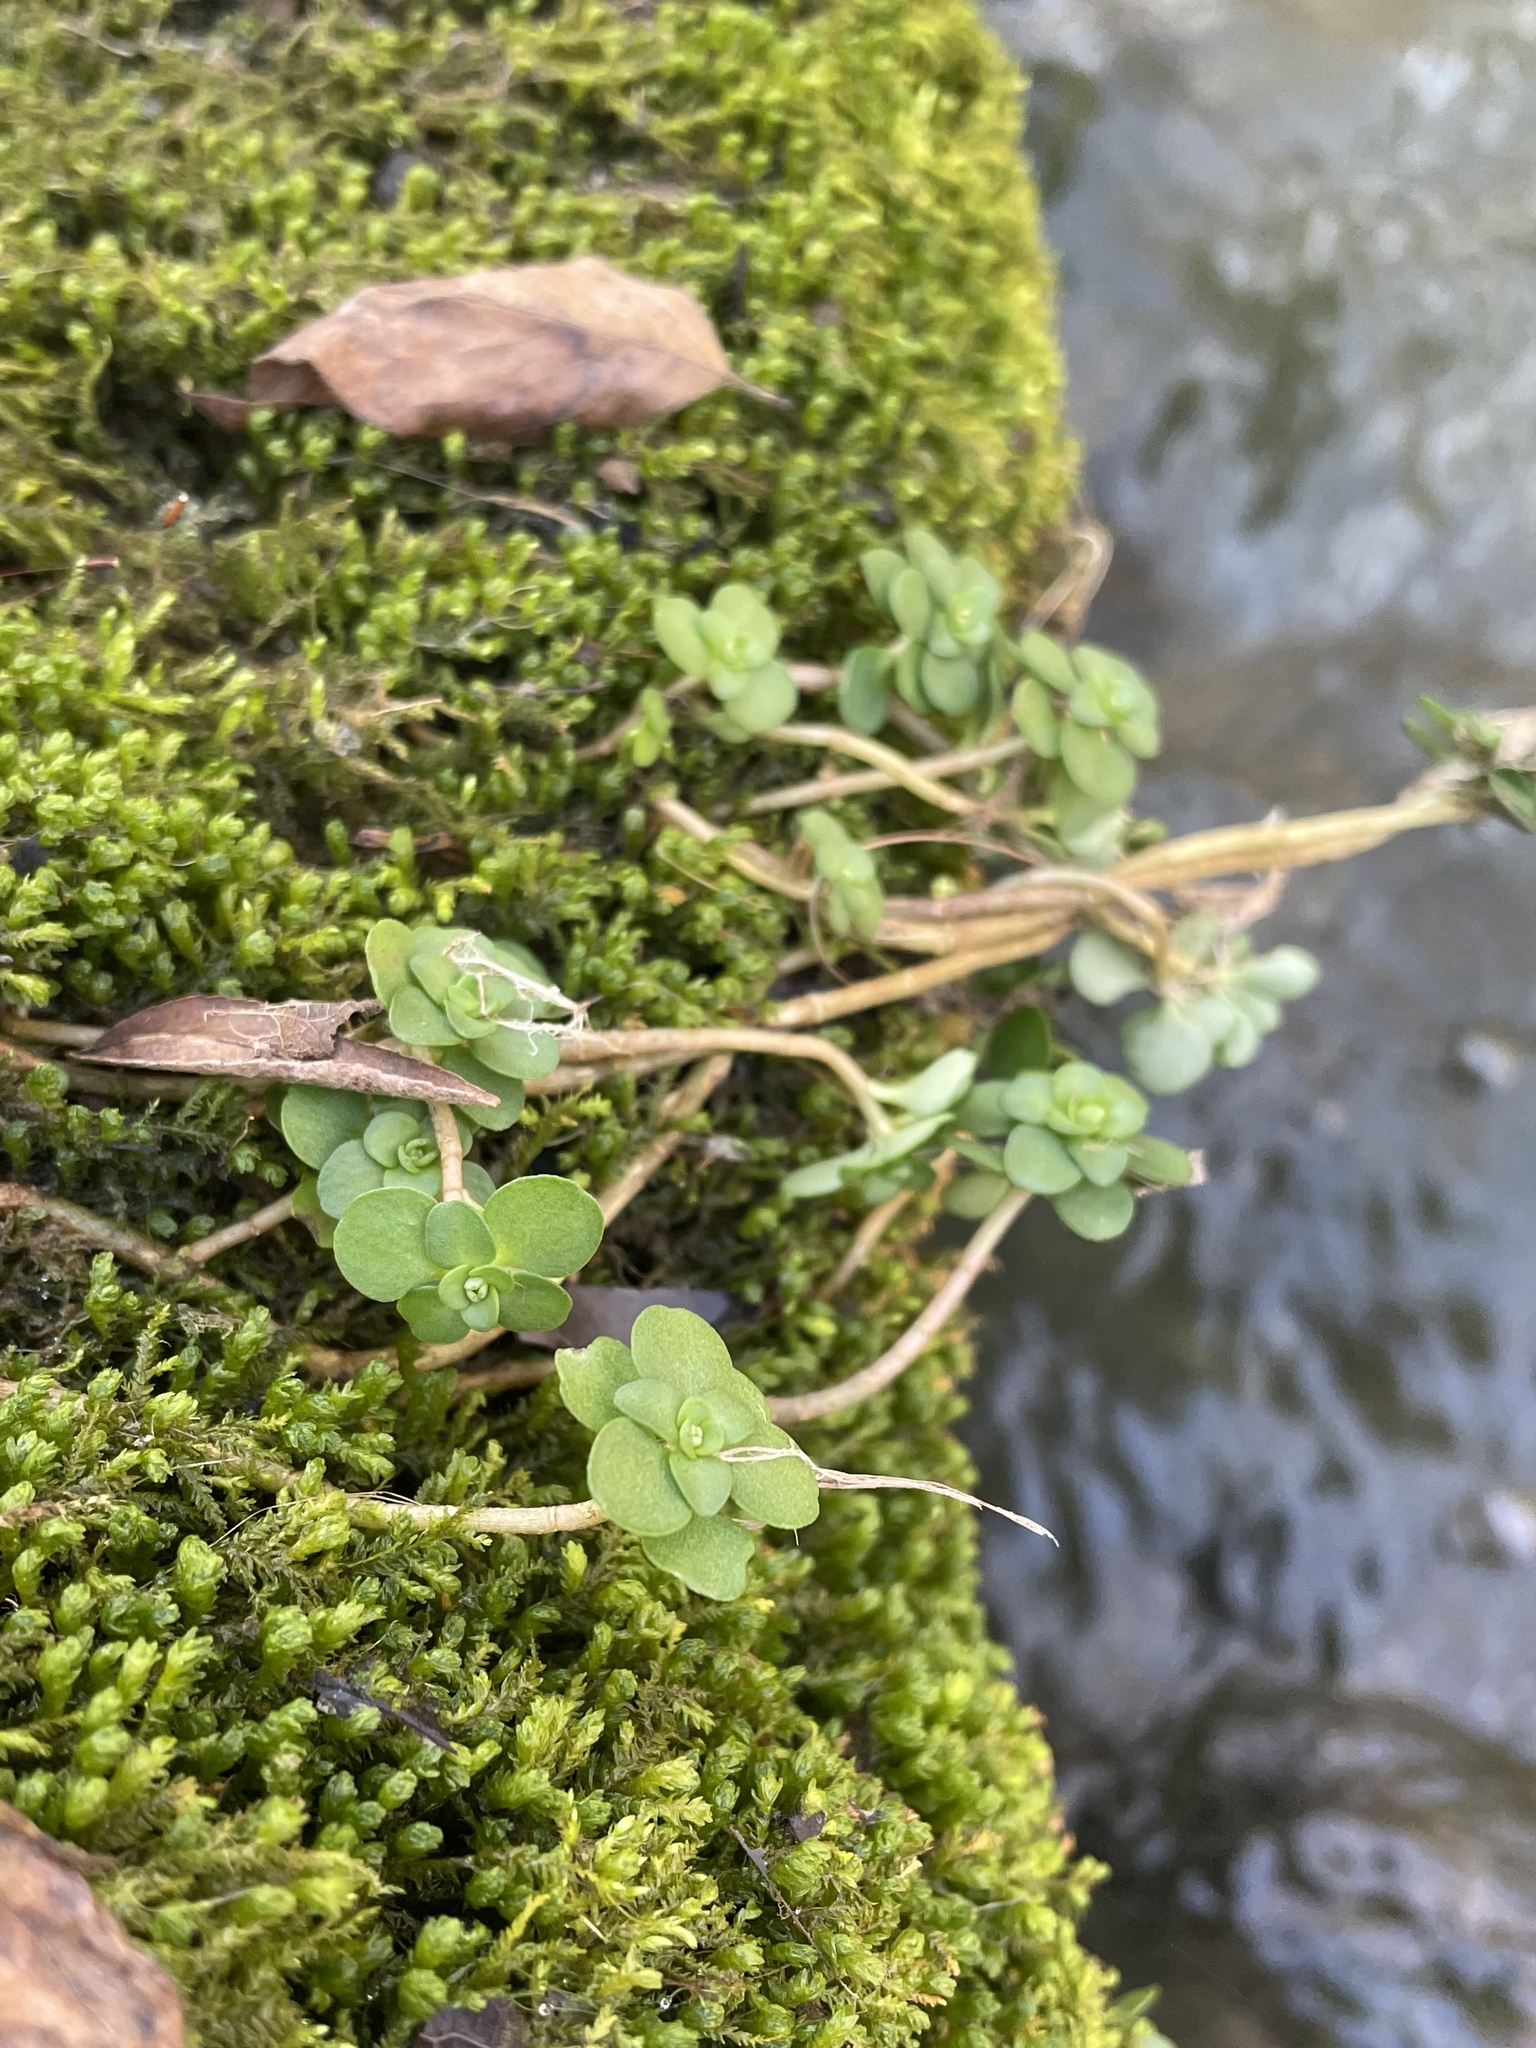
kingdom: Plantae
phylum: Tracheophyta
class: Magnoliopsida
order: Saxifragales
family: Crassulaceae
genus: Sedum
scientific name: Sedum ternatum
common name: Wild stonecrop
